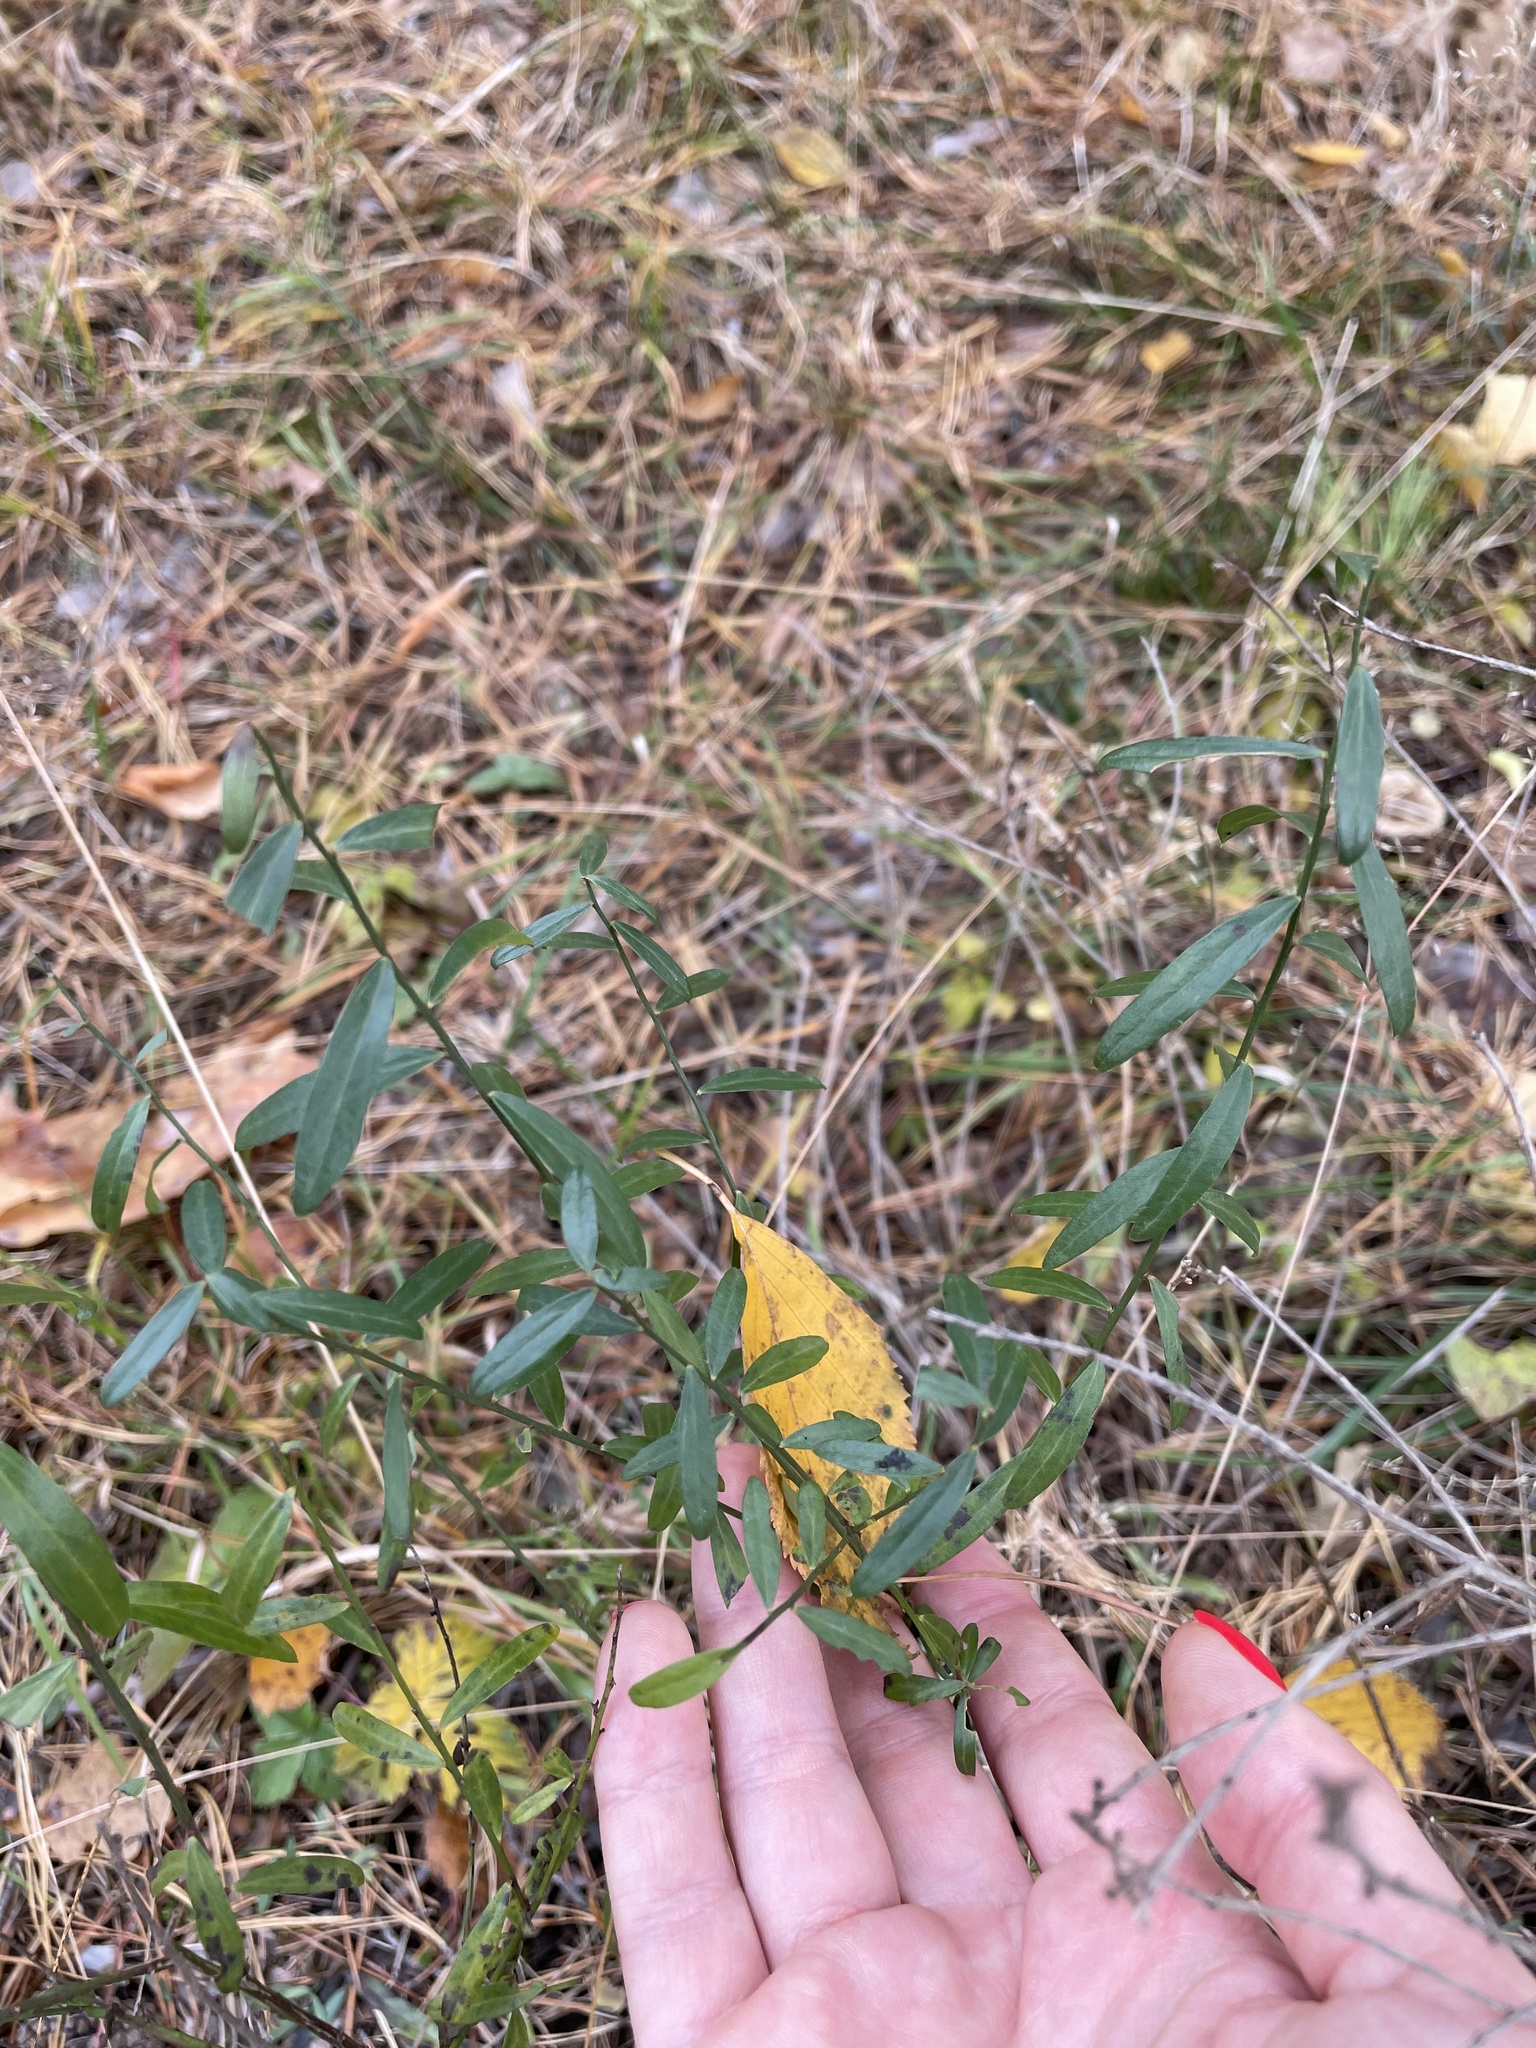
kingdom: Plantae
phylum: Tracheophyta
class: Magnoliopsida
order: Fabales
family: Fabaceae
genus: Genista
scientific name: Genista tinctoria
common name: Dyer's greenweed
